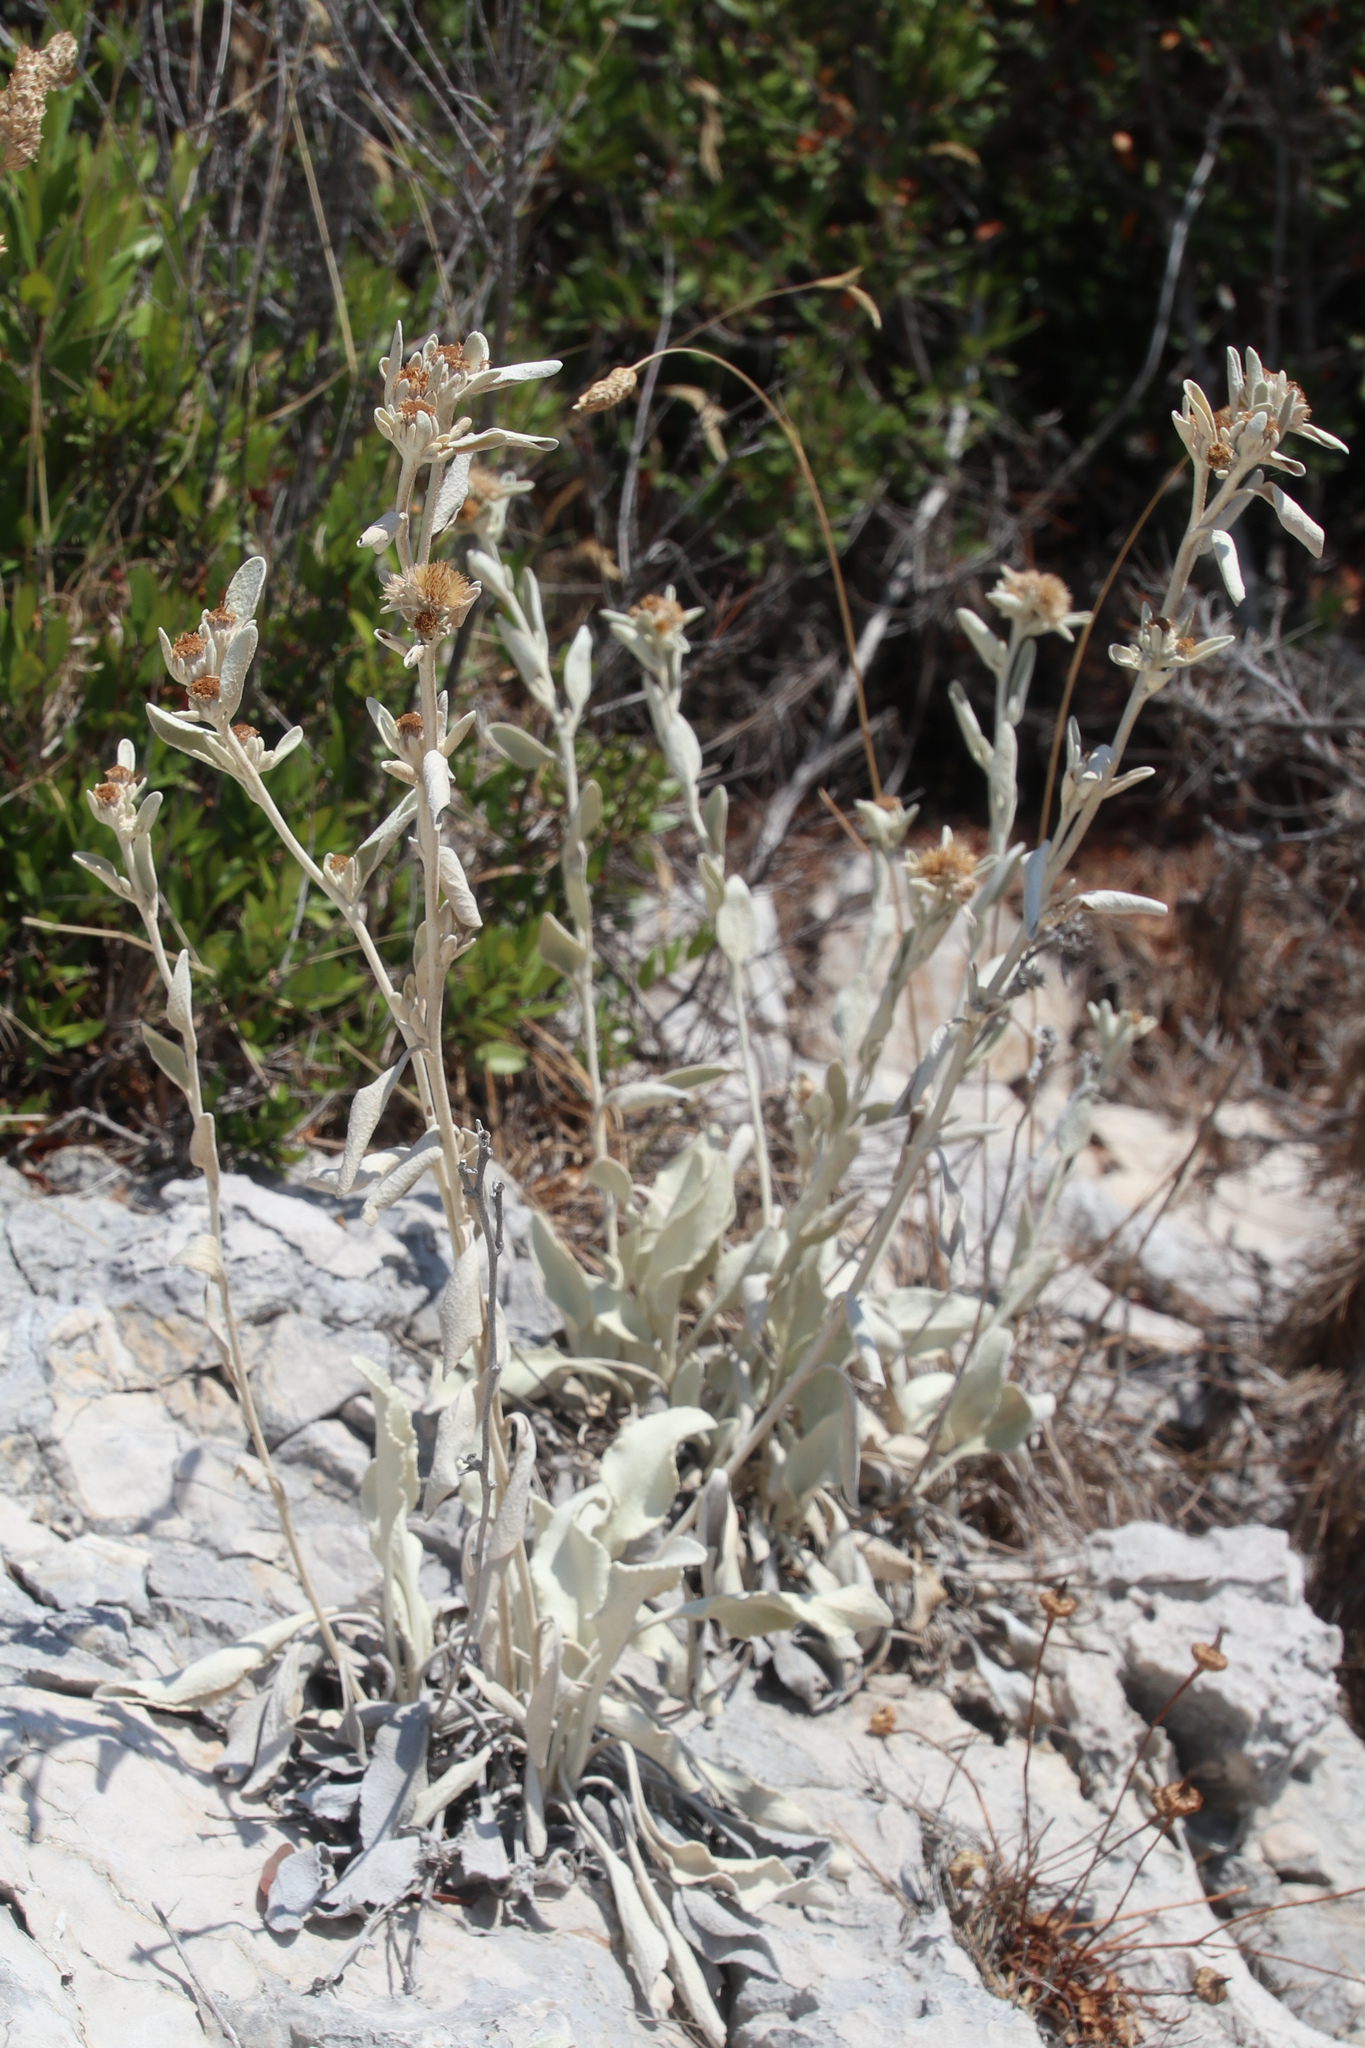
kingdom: Plantae
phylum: Tracheophyta
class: Magnoliopsida
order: Asterales
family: Asteraceae
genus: Pentanema
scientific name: Pentanema verbascifolium
